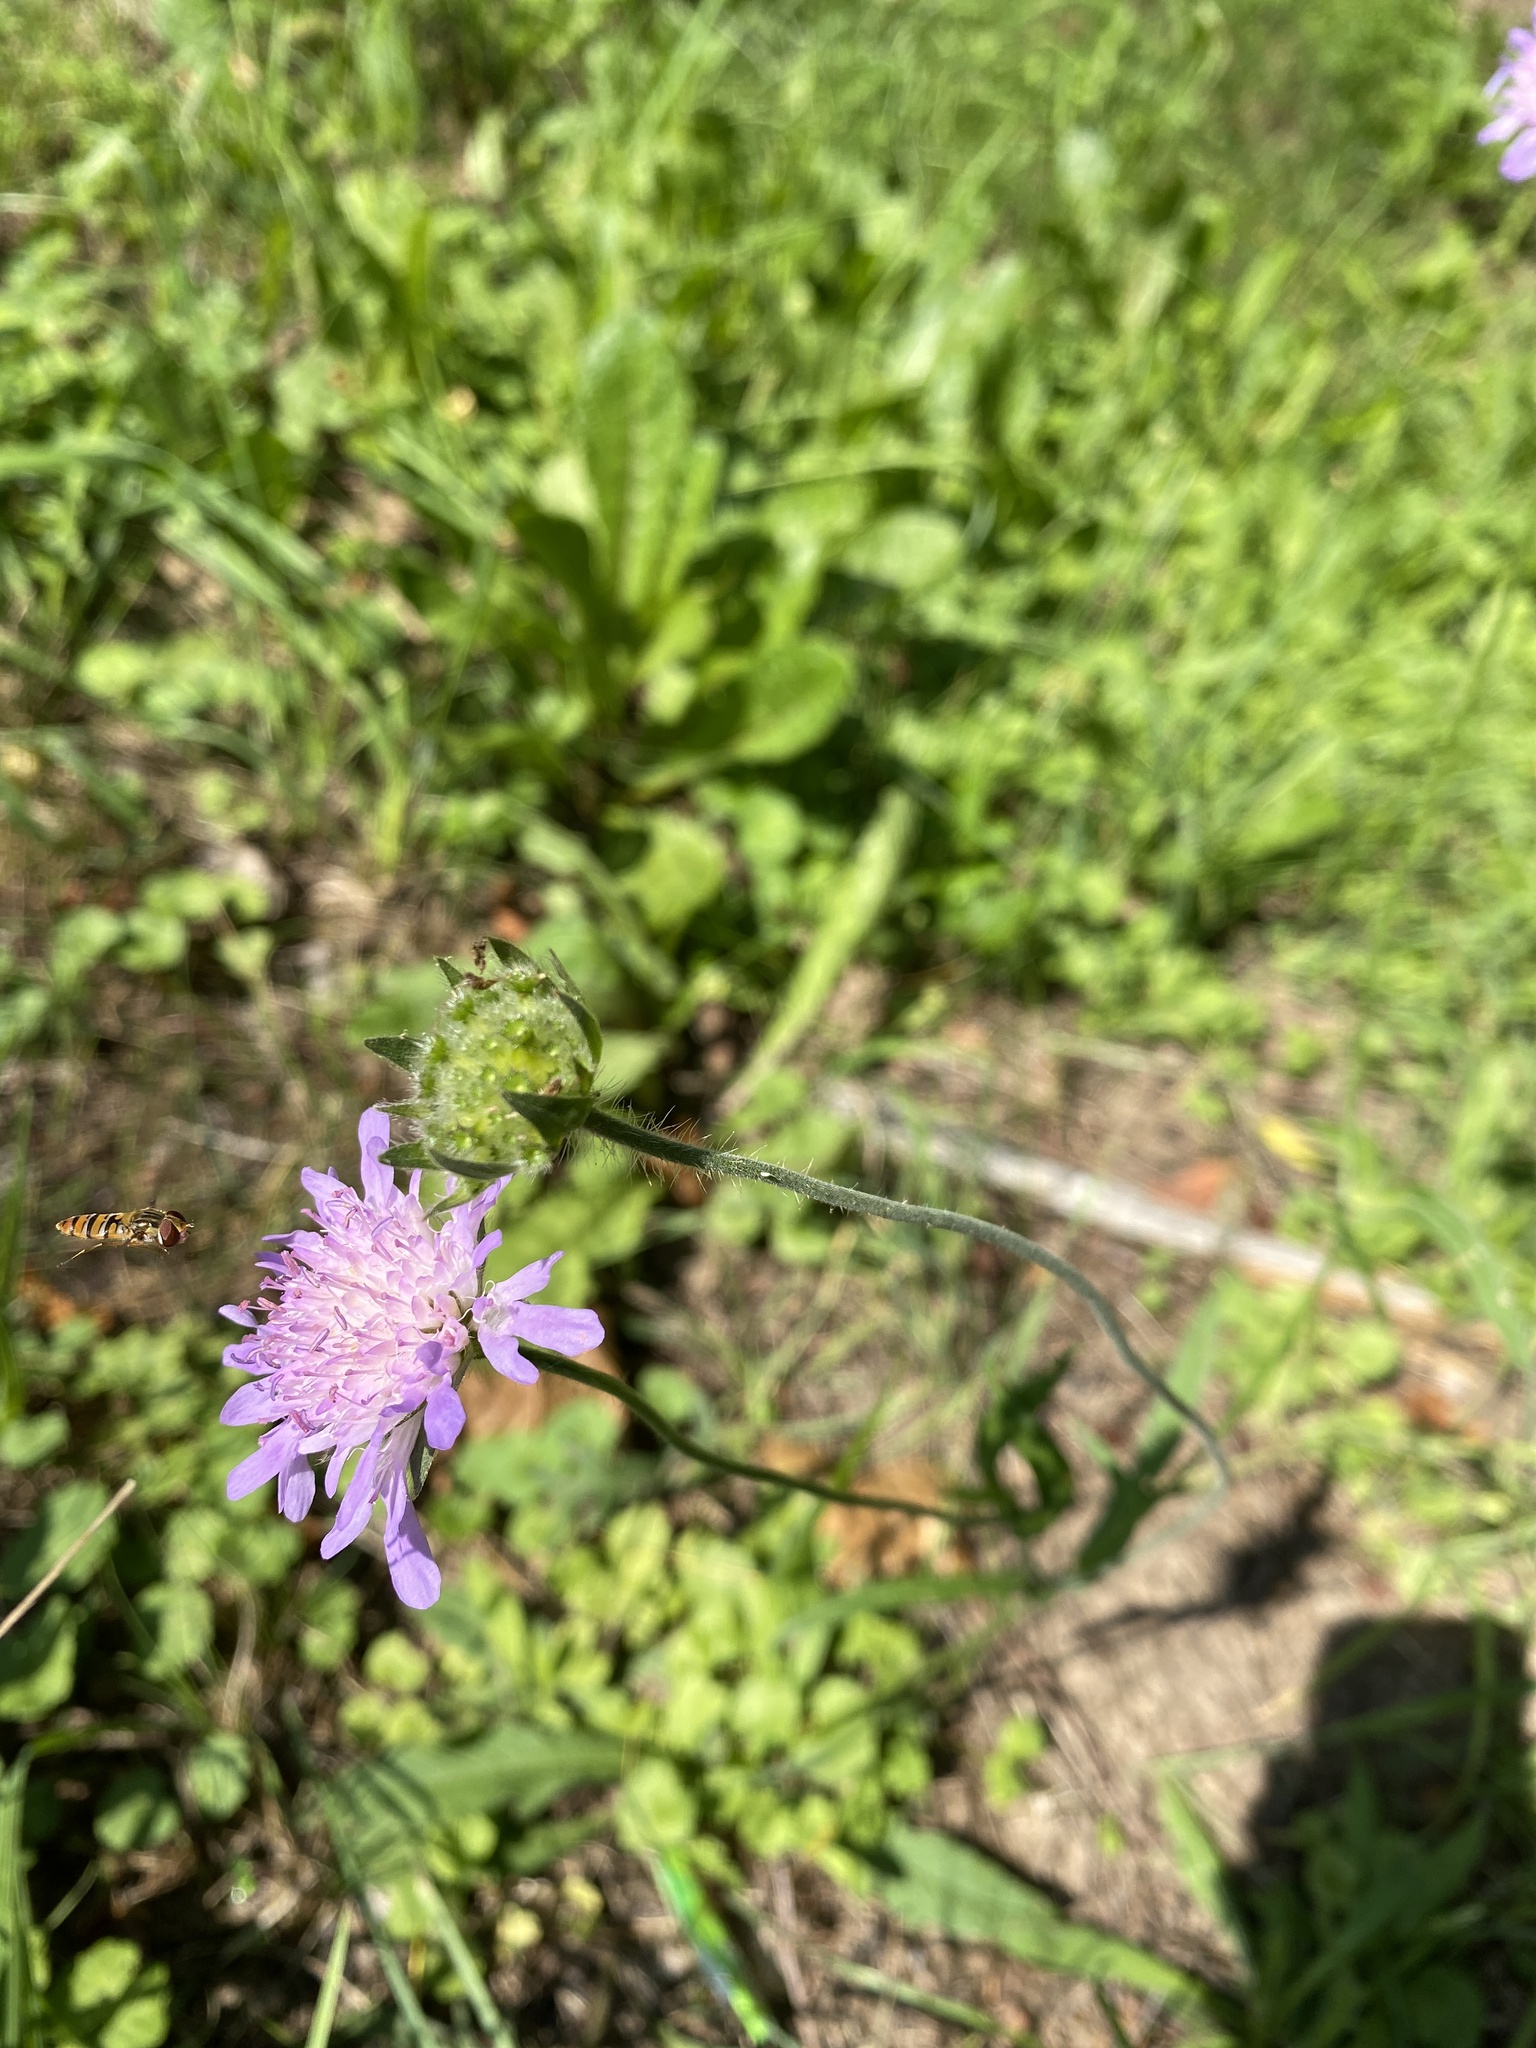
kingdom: Plantae
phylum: Tracheophyta
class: Magnoliopsida
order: Dipsacales
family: Caprifoliaceae
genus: Knautia
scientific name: Knautia arvensis
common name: Field scabiosa
